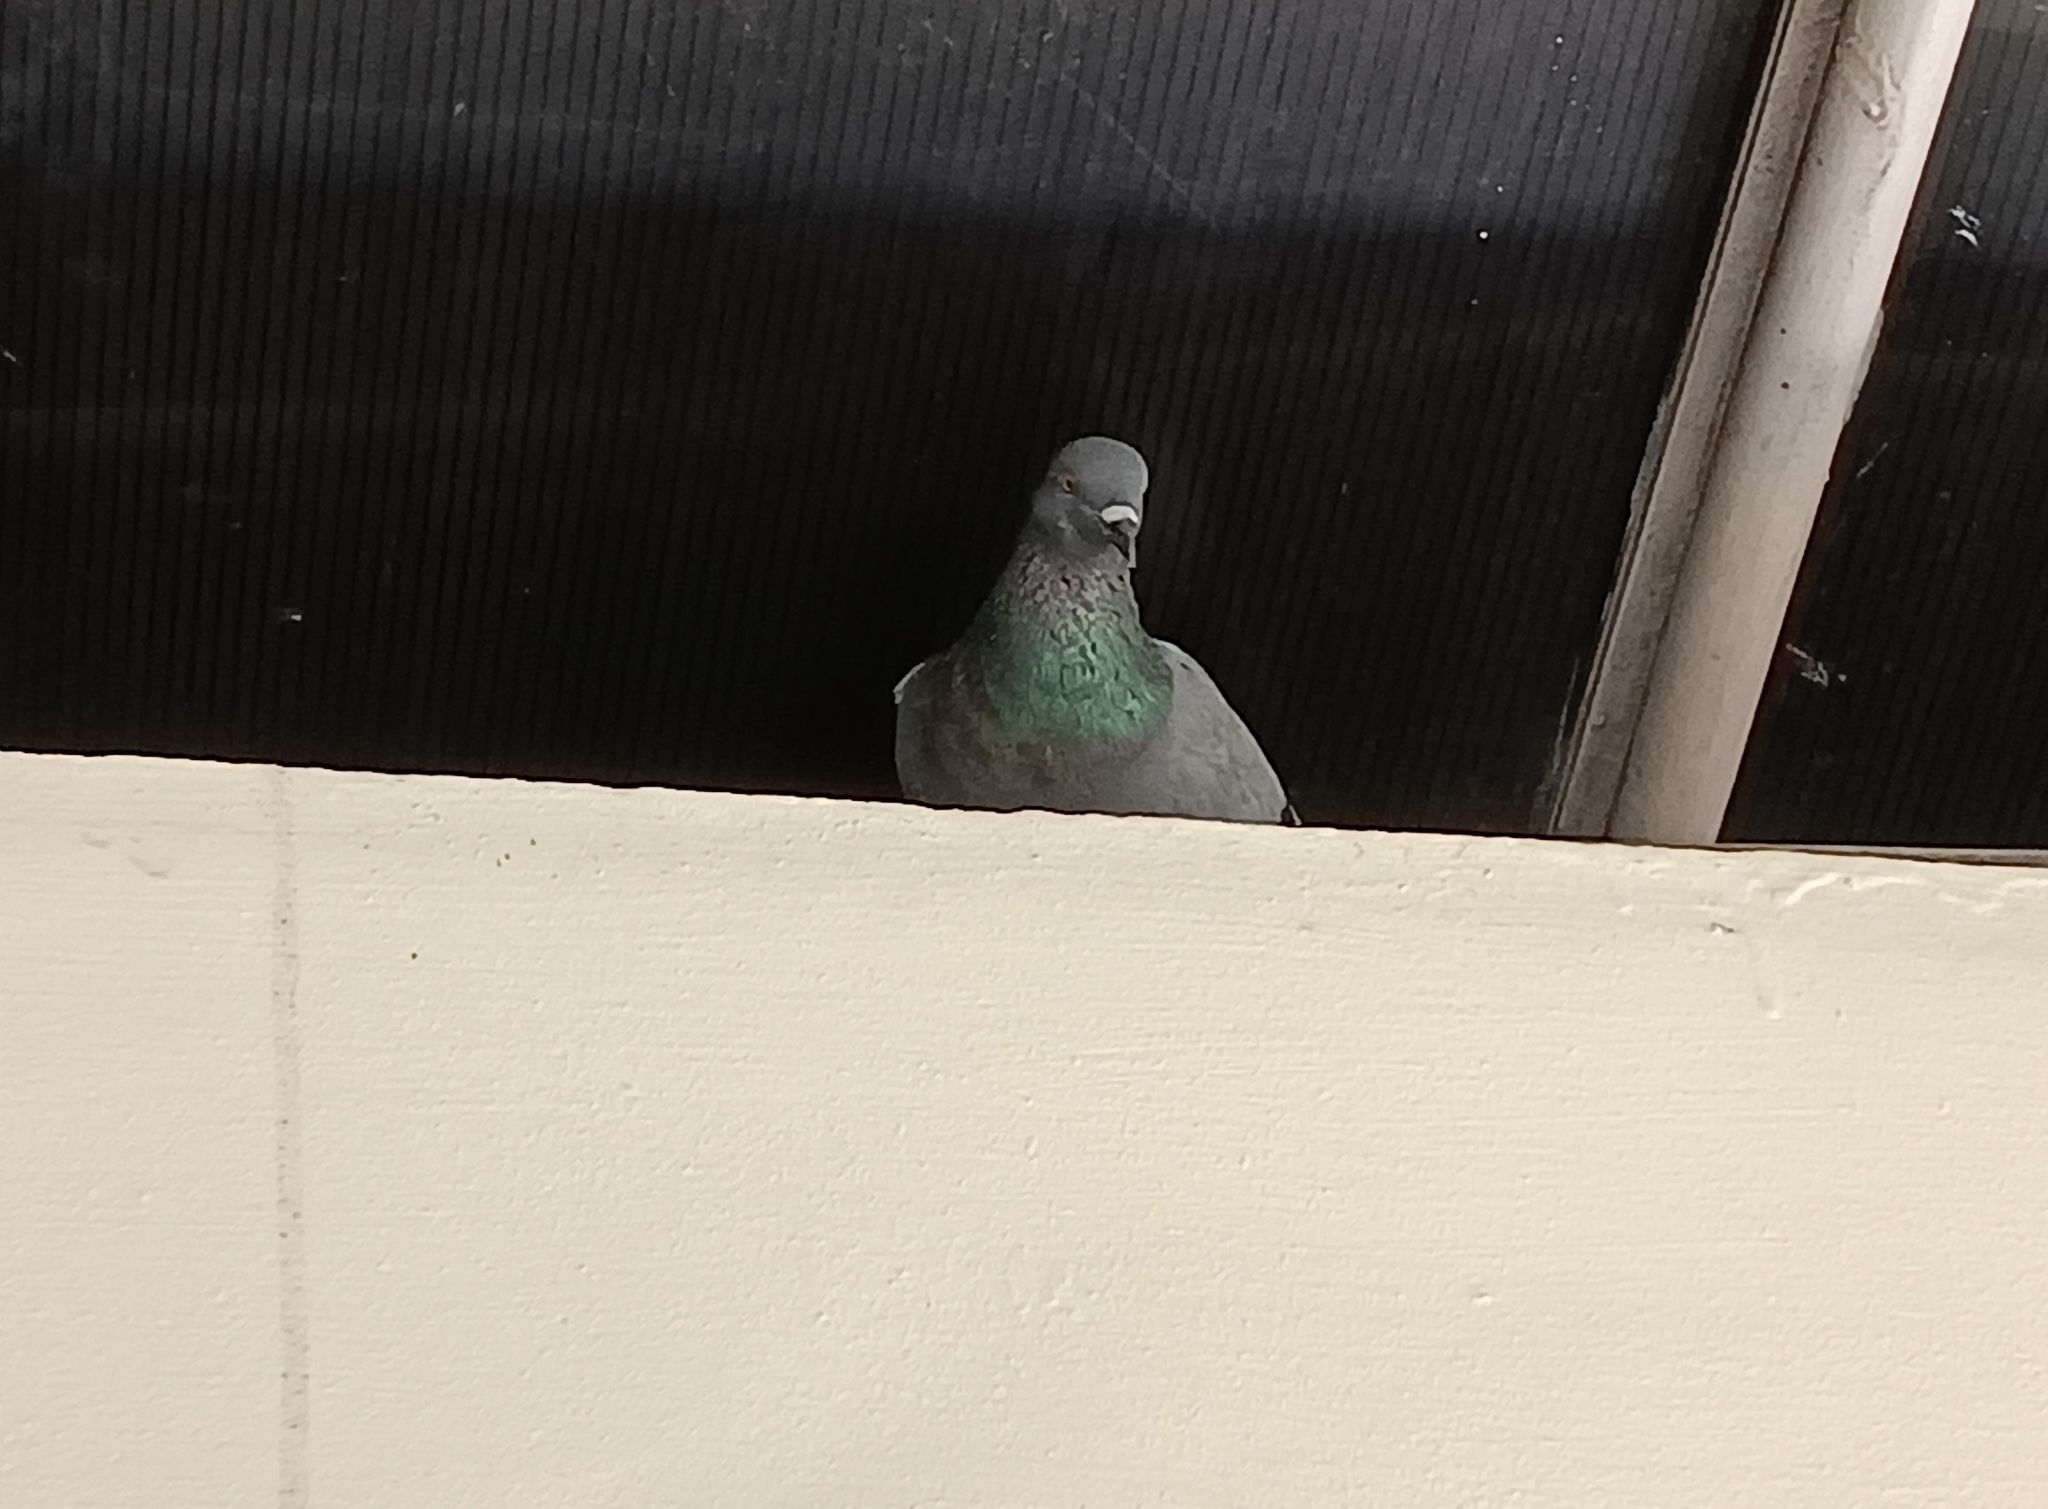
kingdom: Animalia
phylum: Chordata
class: Aves
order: Columbiformes
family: Columbidae
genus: Columba
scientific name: Columba livia
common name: Rock pigeon
